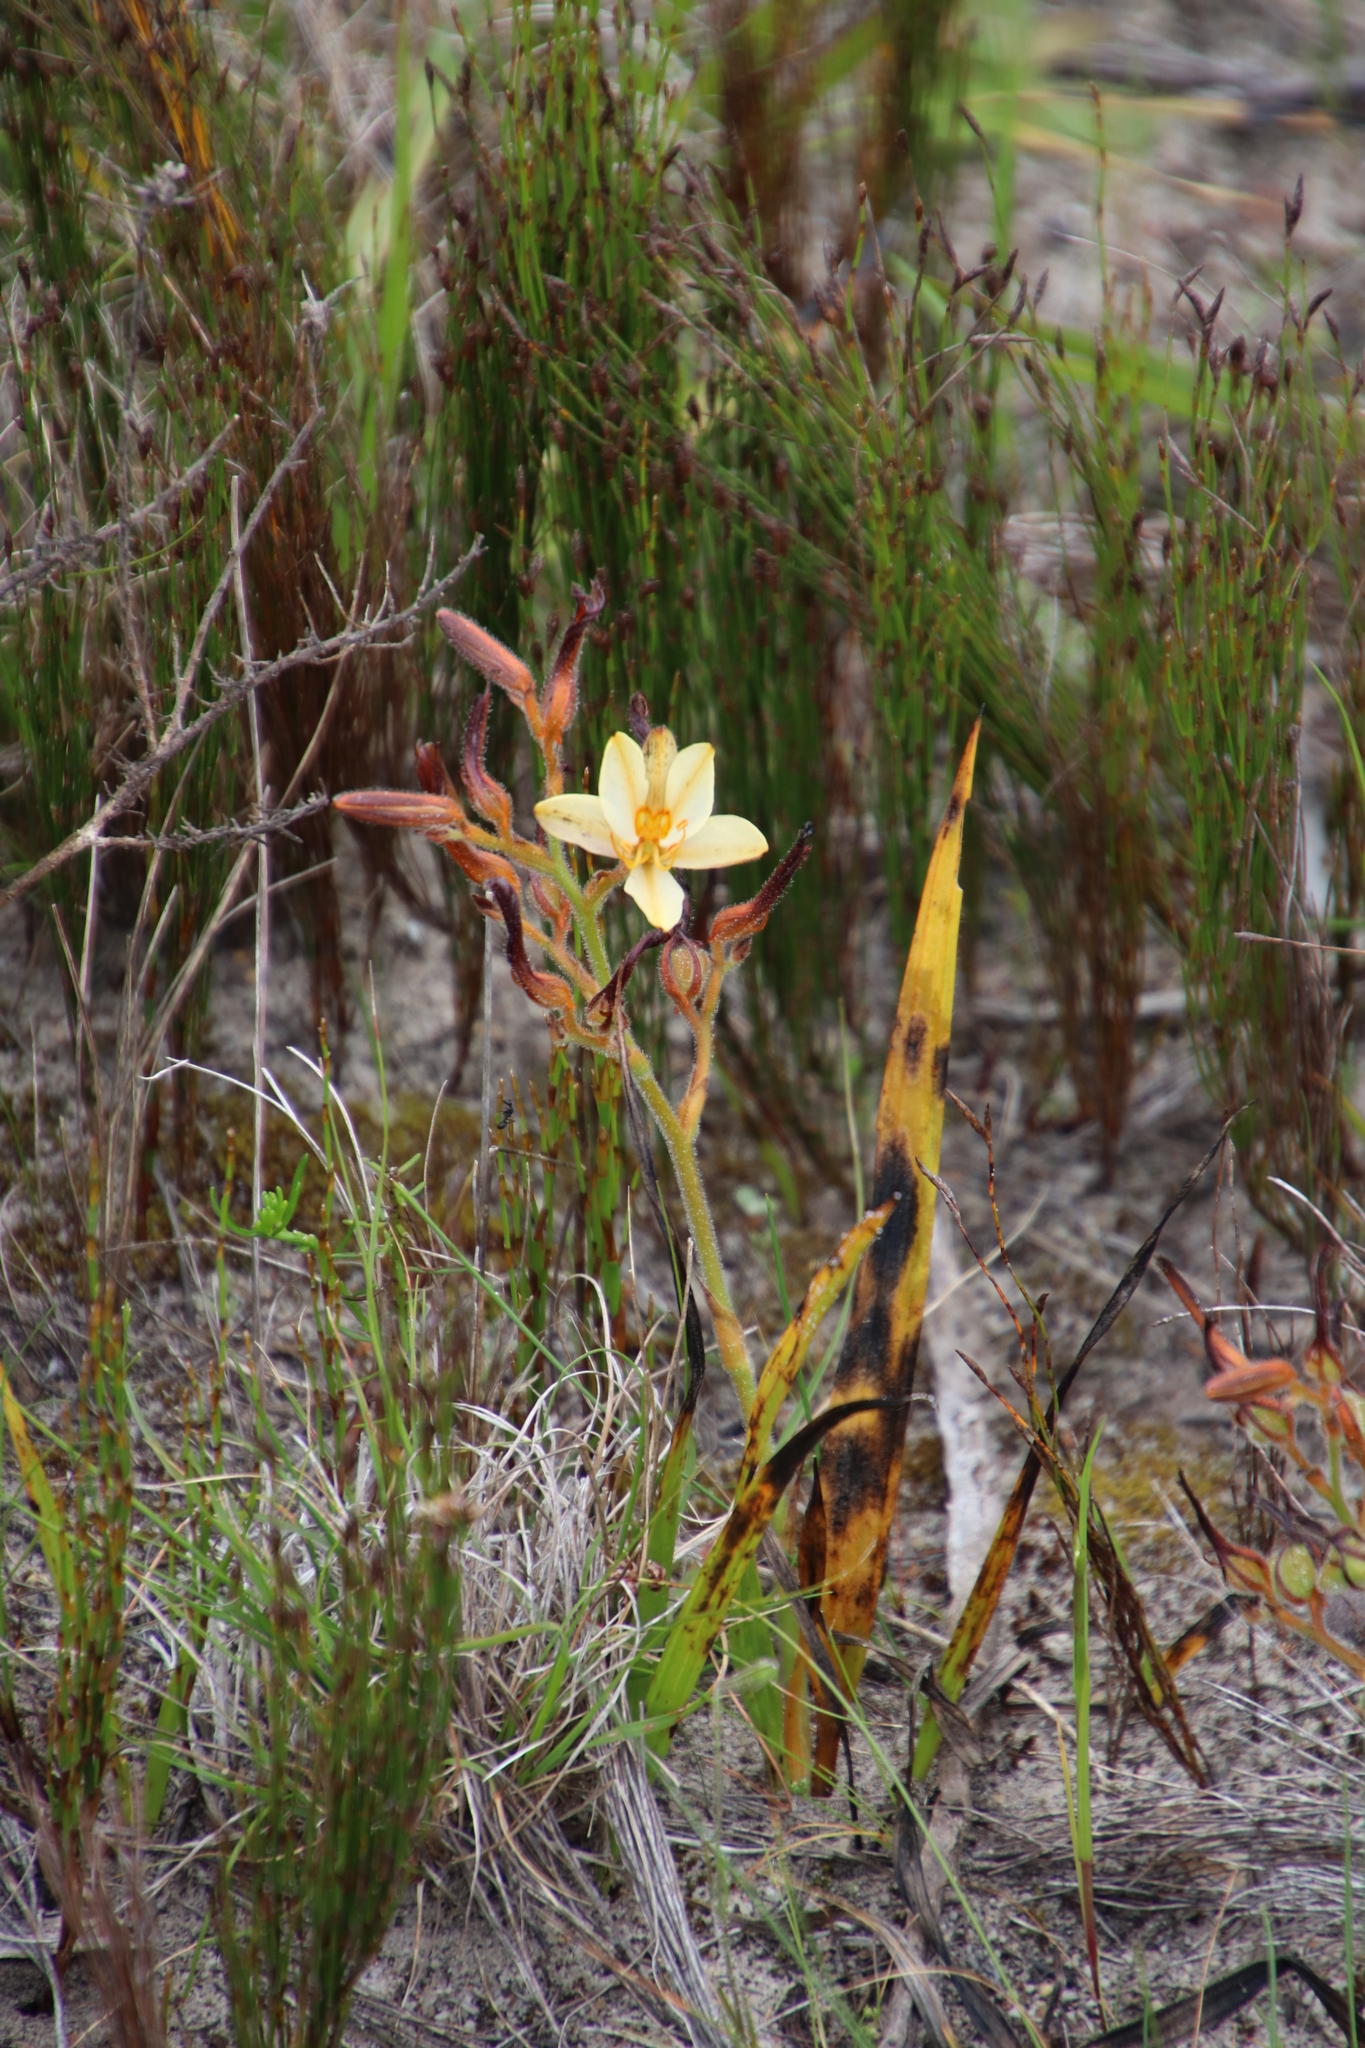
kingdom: Plantae
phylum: Tracheophyta
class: Liliopsida
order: Commelinales
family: Haemodoraceae
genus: Wachendorfia
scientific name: Wachendorfia paniculata
